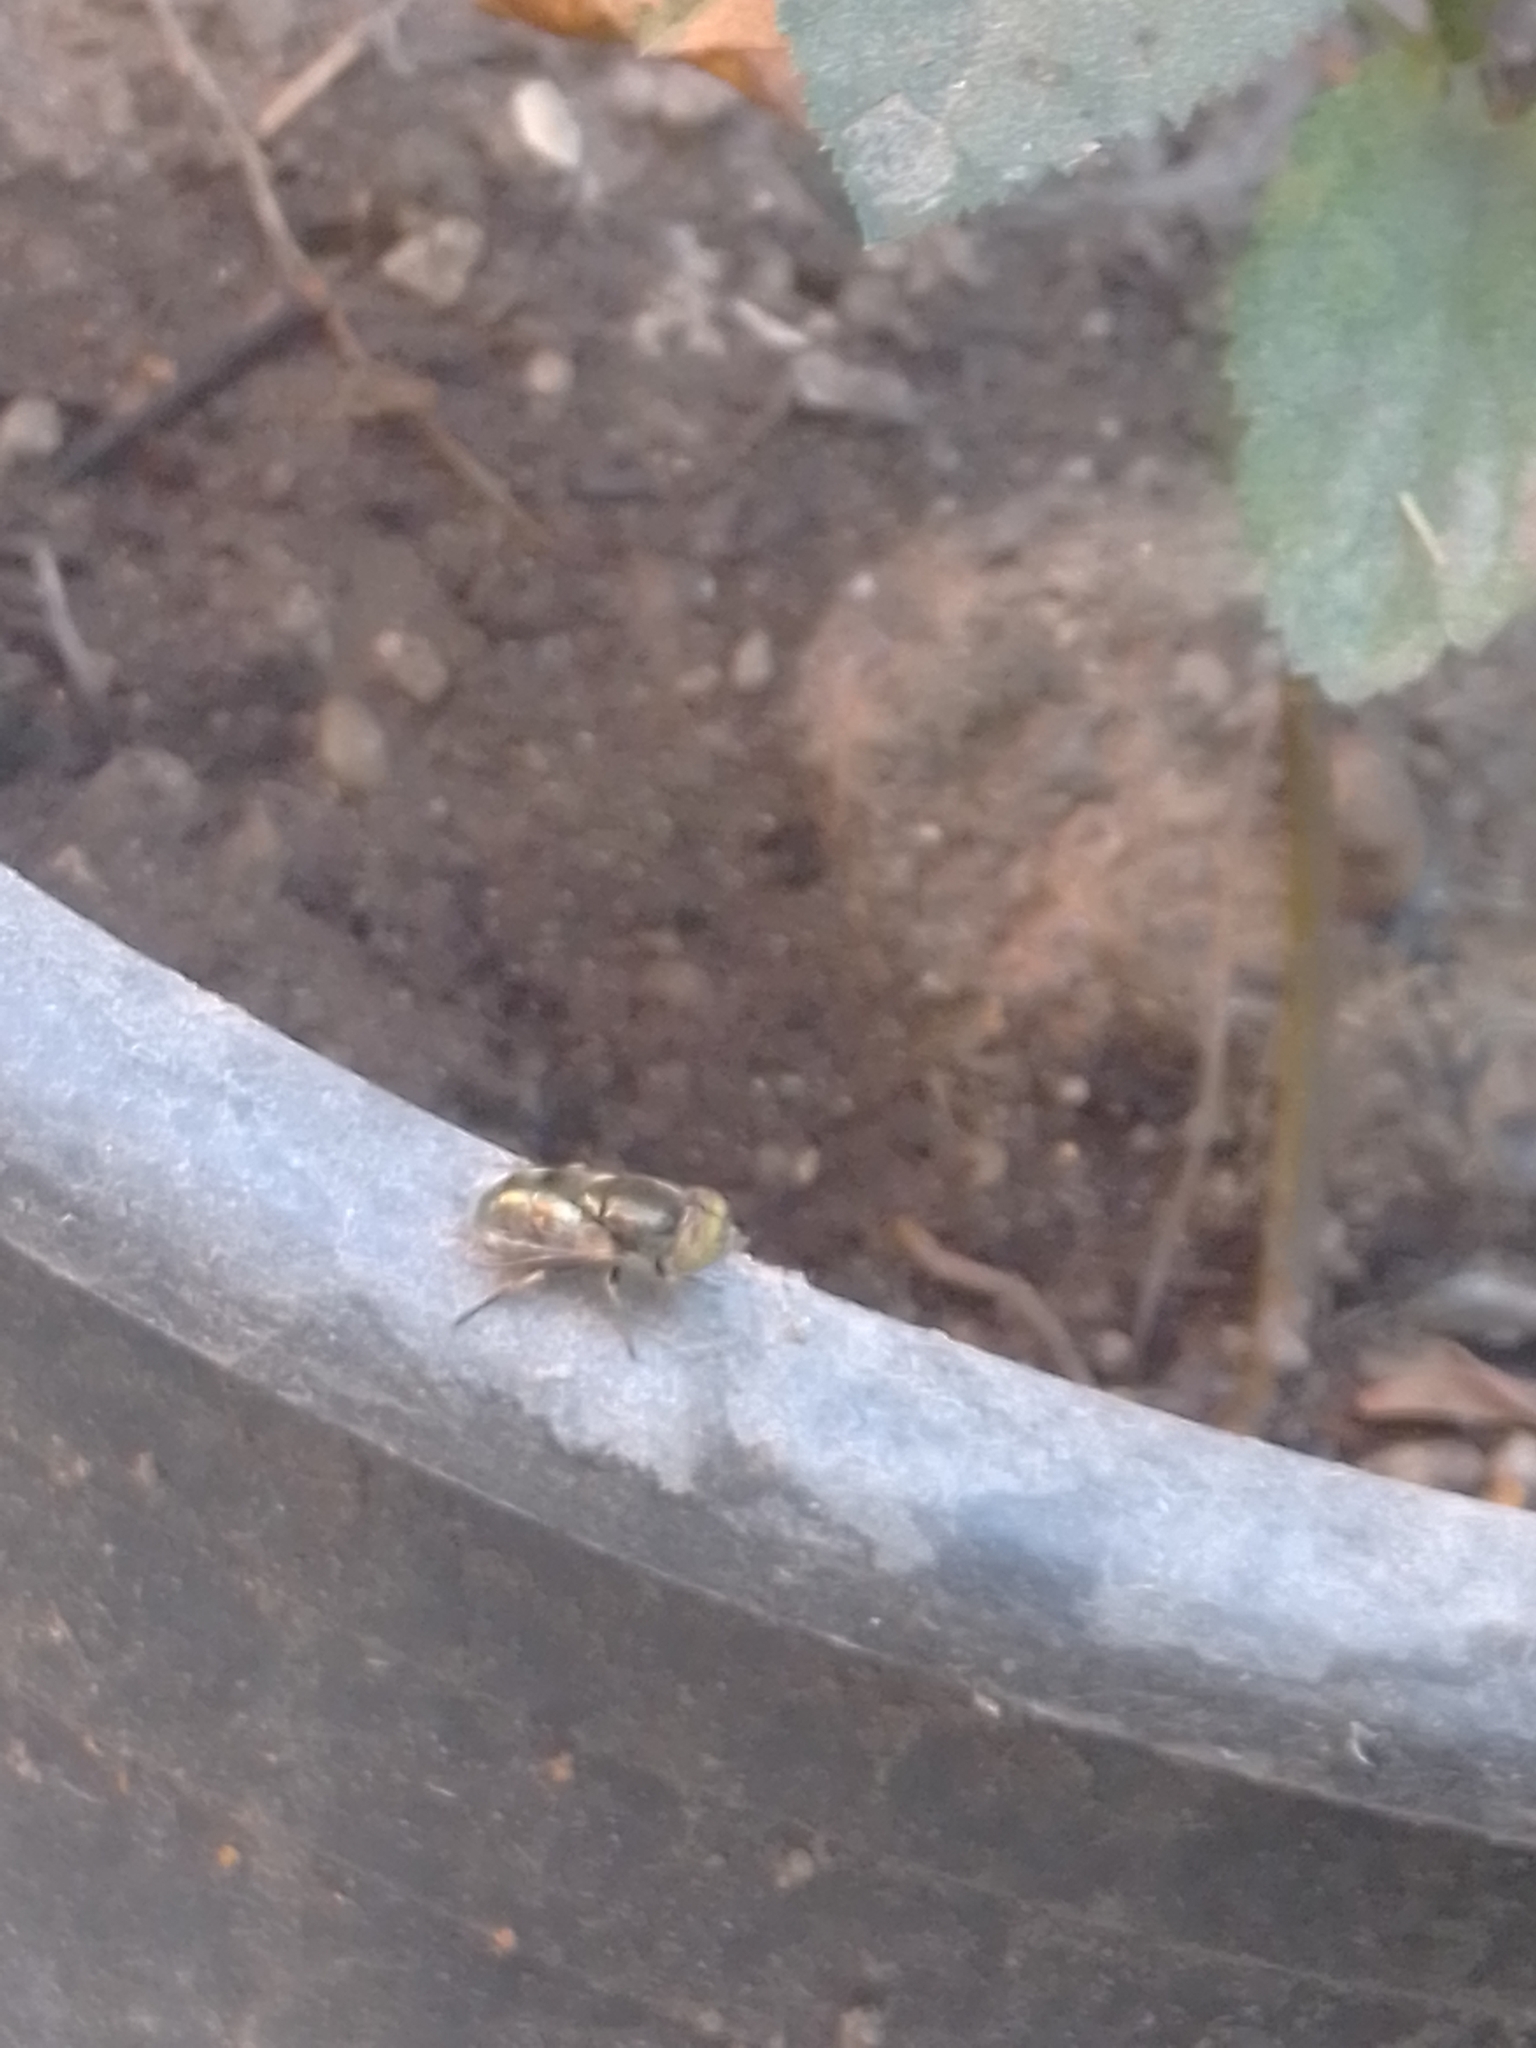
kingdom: Animalia
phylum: Arthropoda
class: Insecta
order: Diptera
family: Syrphidae
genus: Eristalinus
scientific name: Eristalinus aeneus
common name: Syrphid fly
